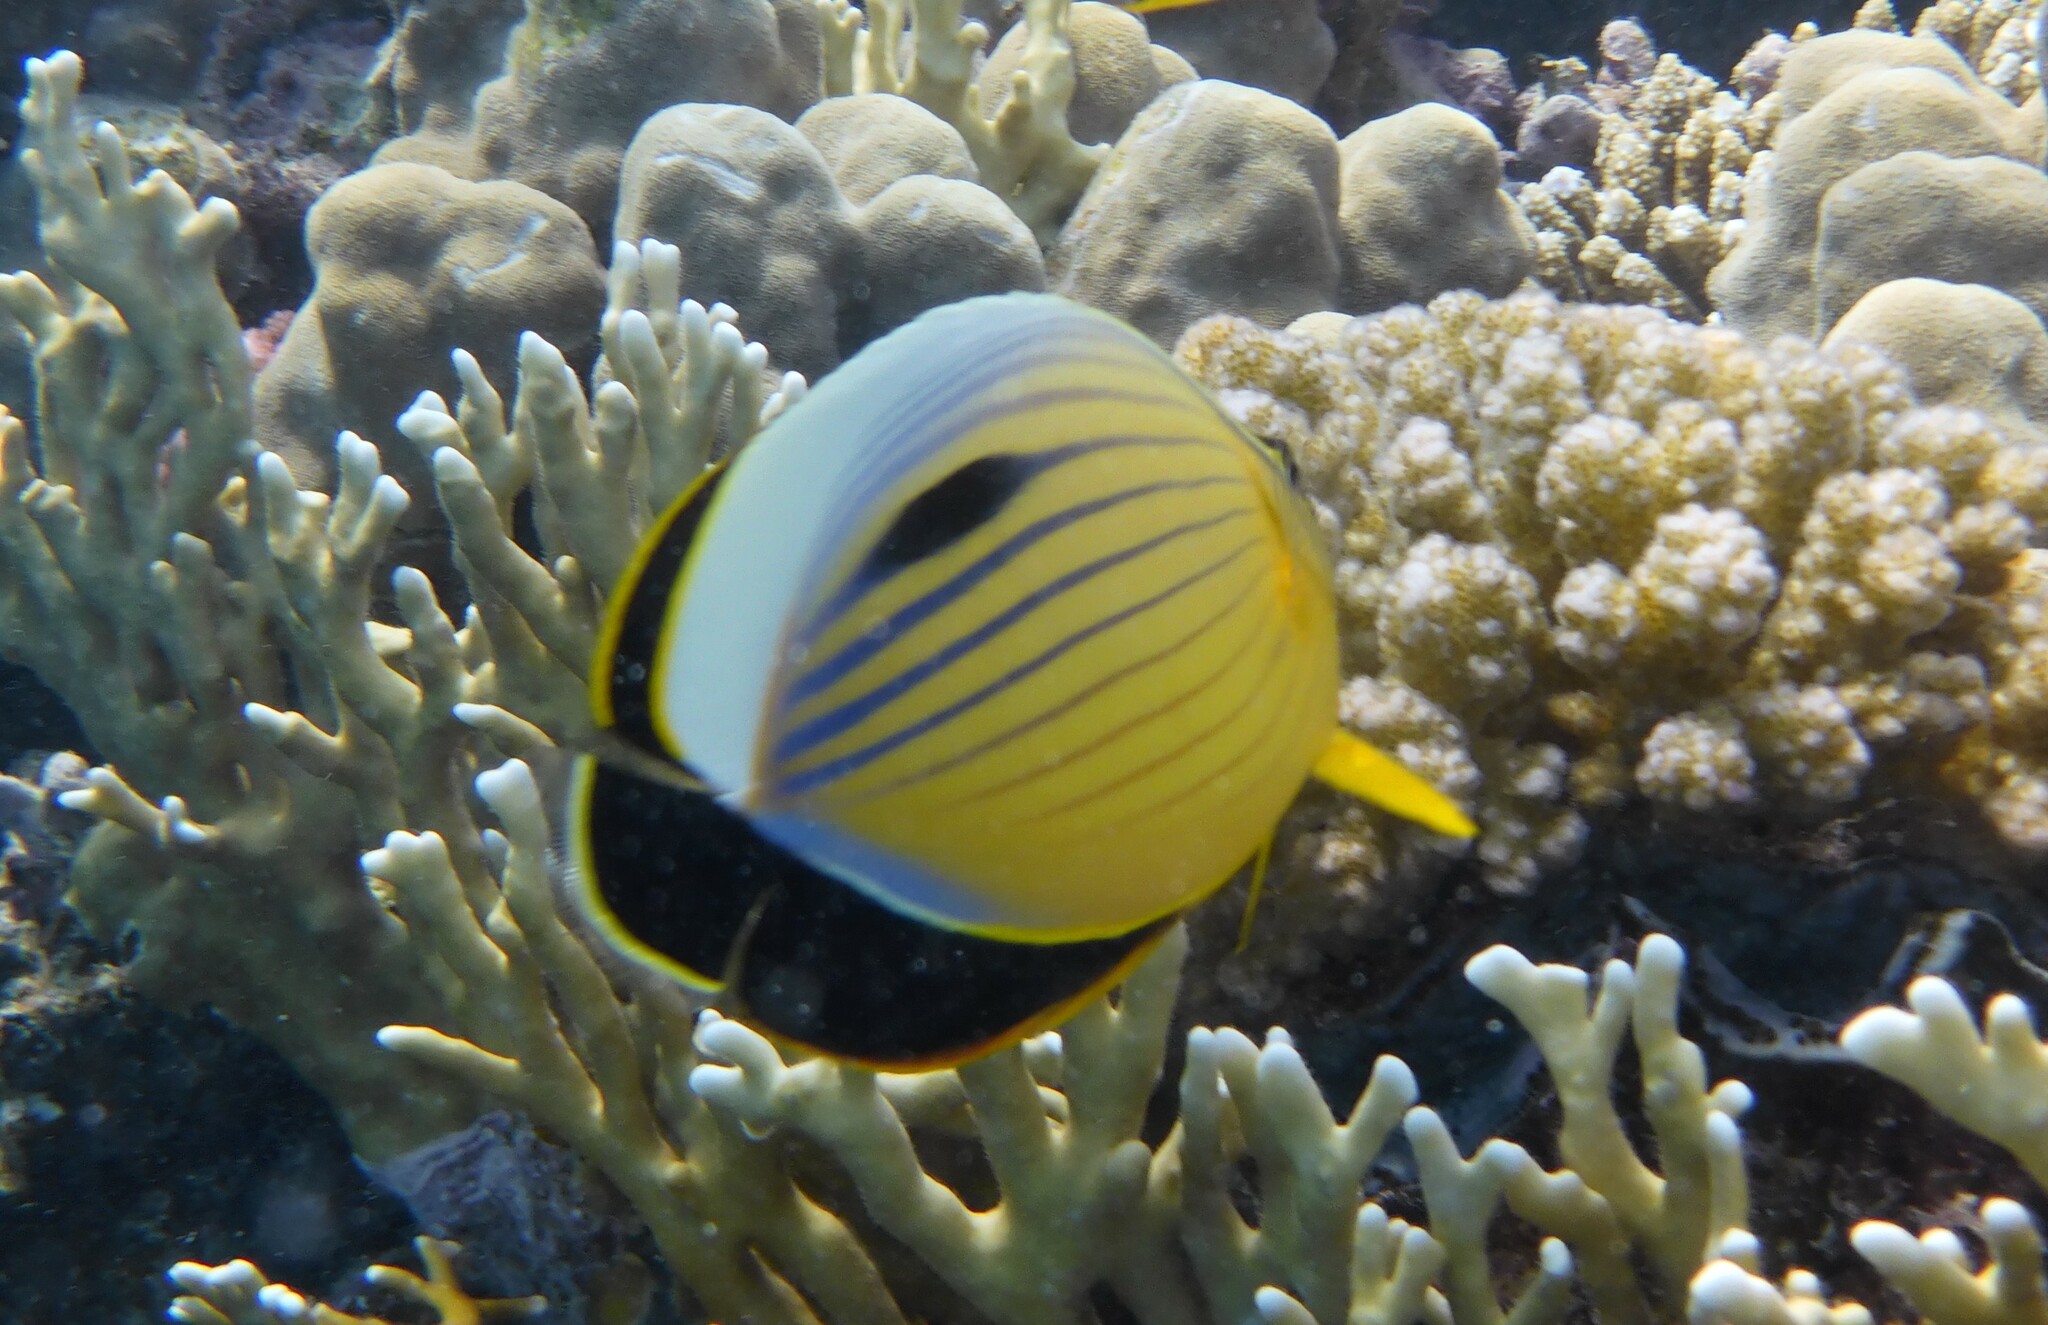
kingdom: Animalia
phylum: Chordata
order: Perciformes
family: Chaetodontidae
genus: Chaetodon
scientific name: Chaetodon austriacus
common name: Exquisite butterflyfish
